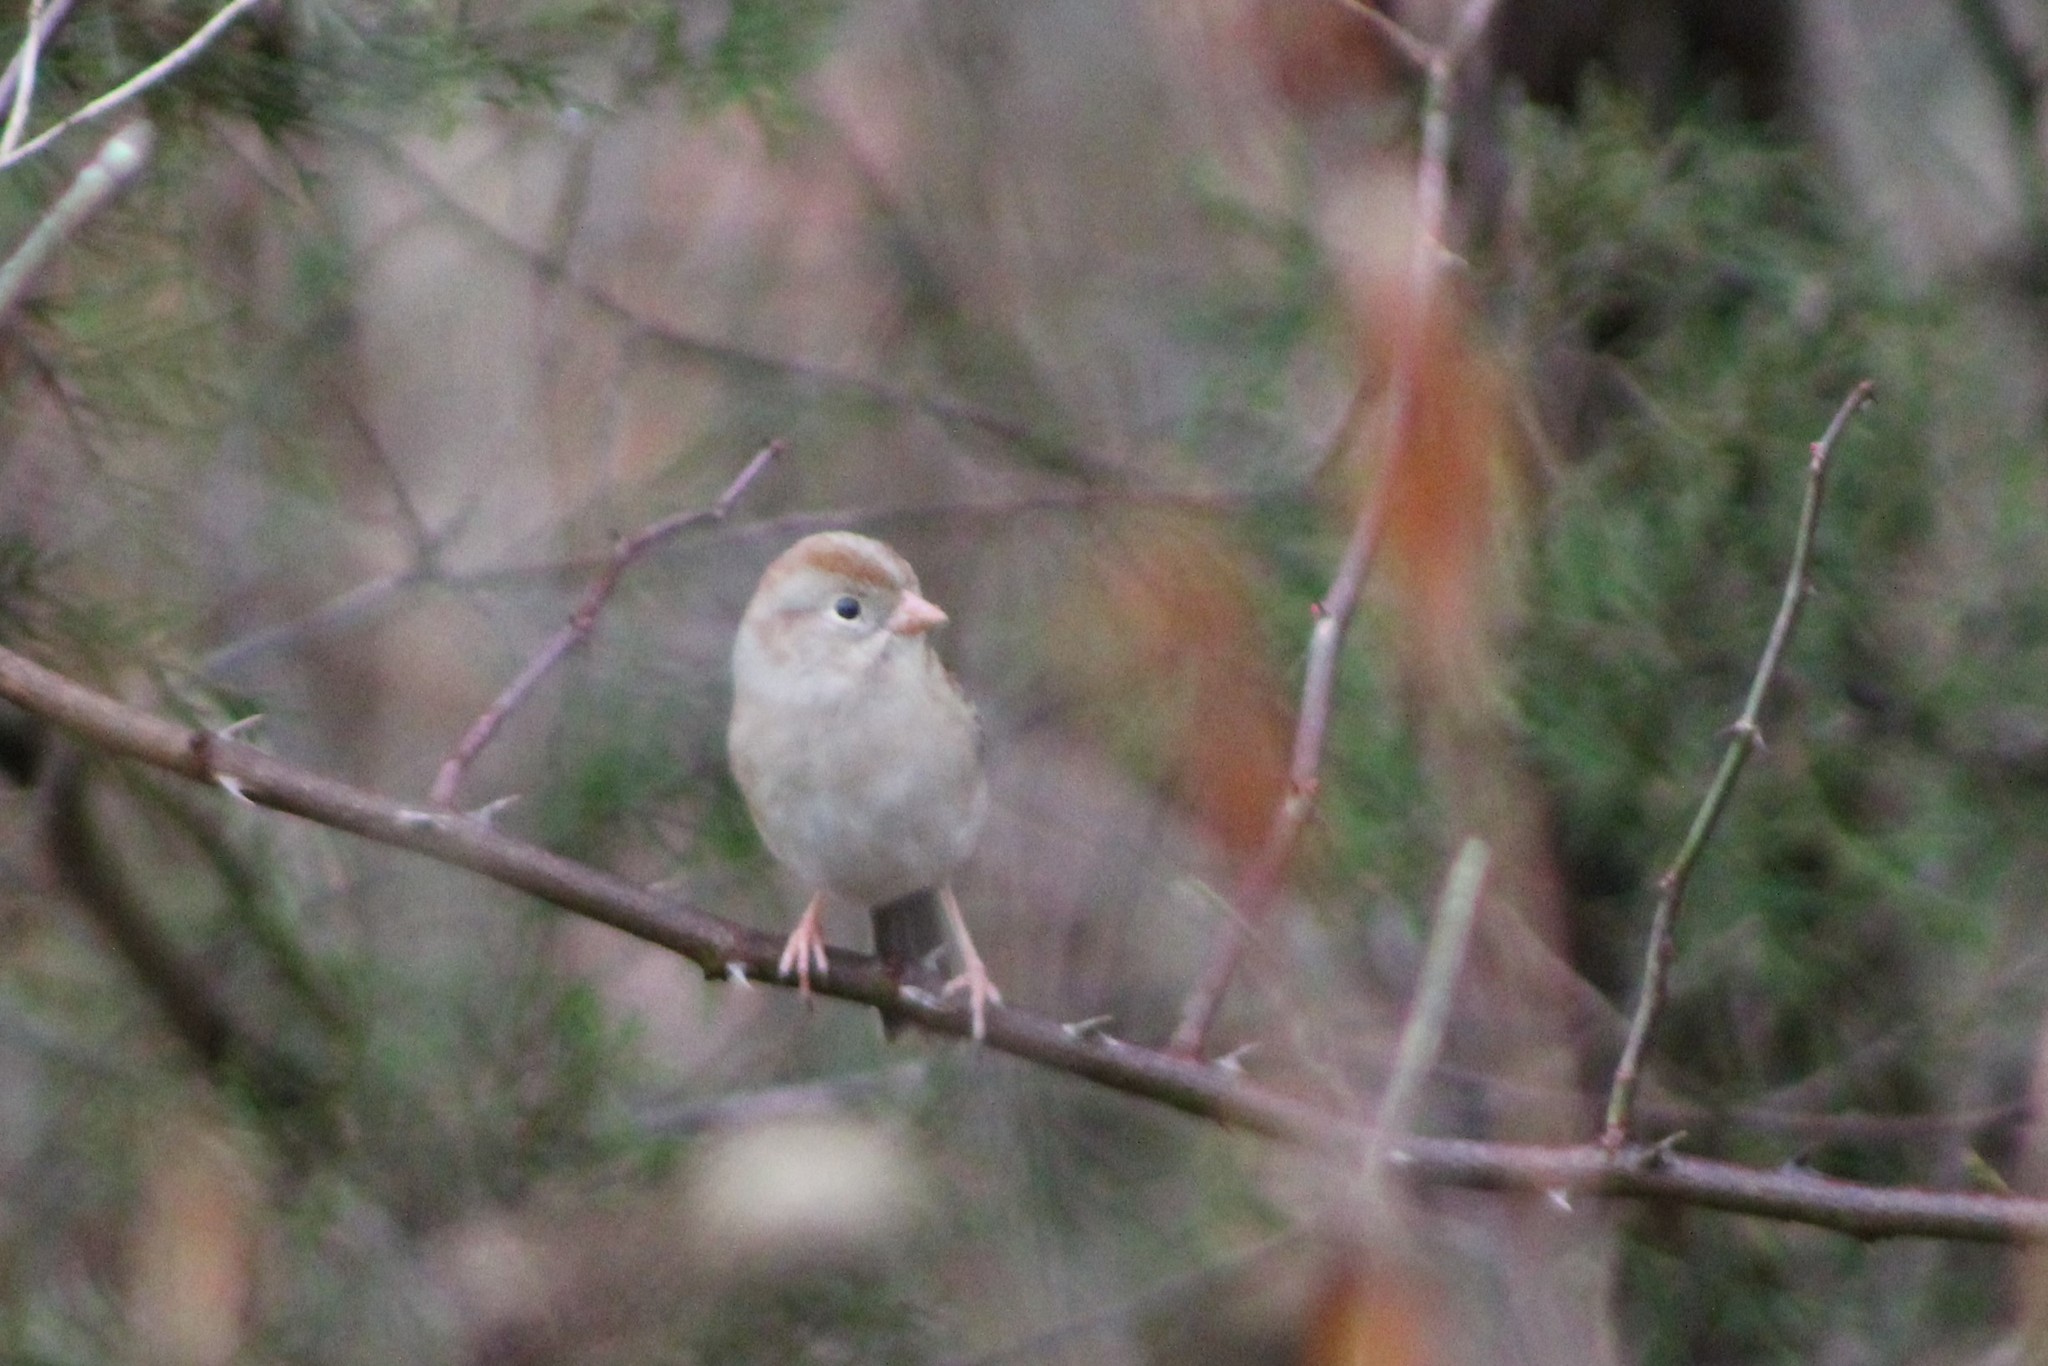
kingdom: Animalia
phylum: Chordata
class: Aves
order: Passeriformes
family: Passerellidae
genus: Spizella
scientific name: Spizella pusilla
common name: Field sparrow
